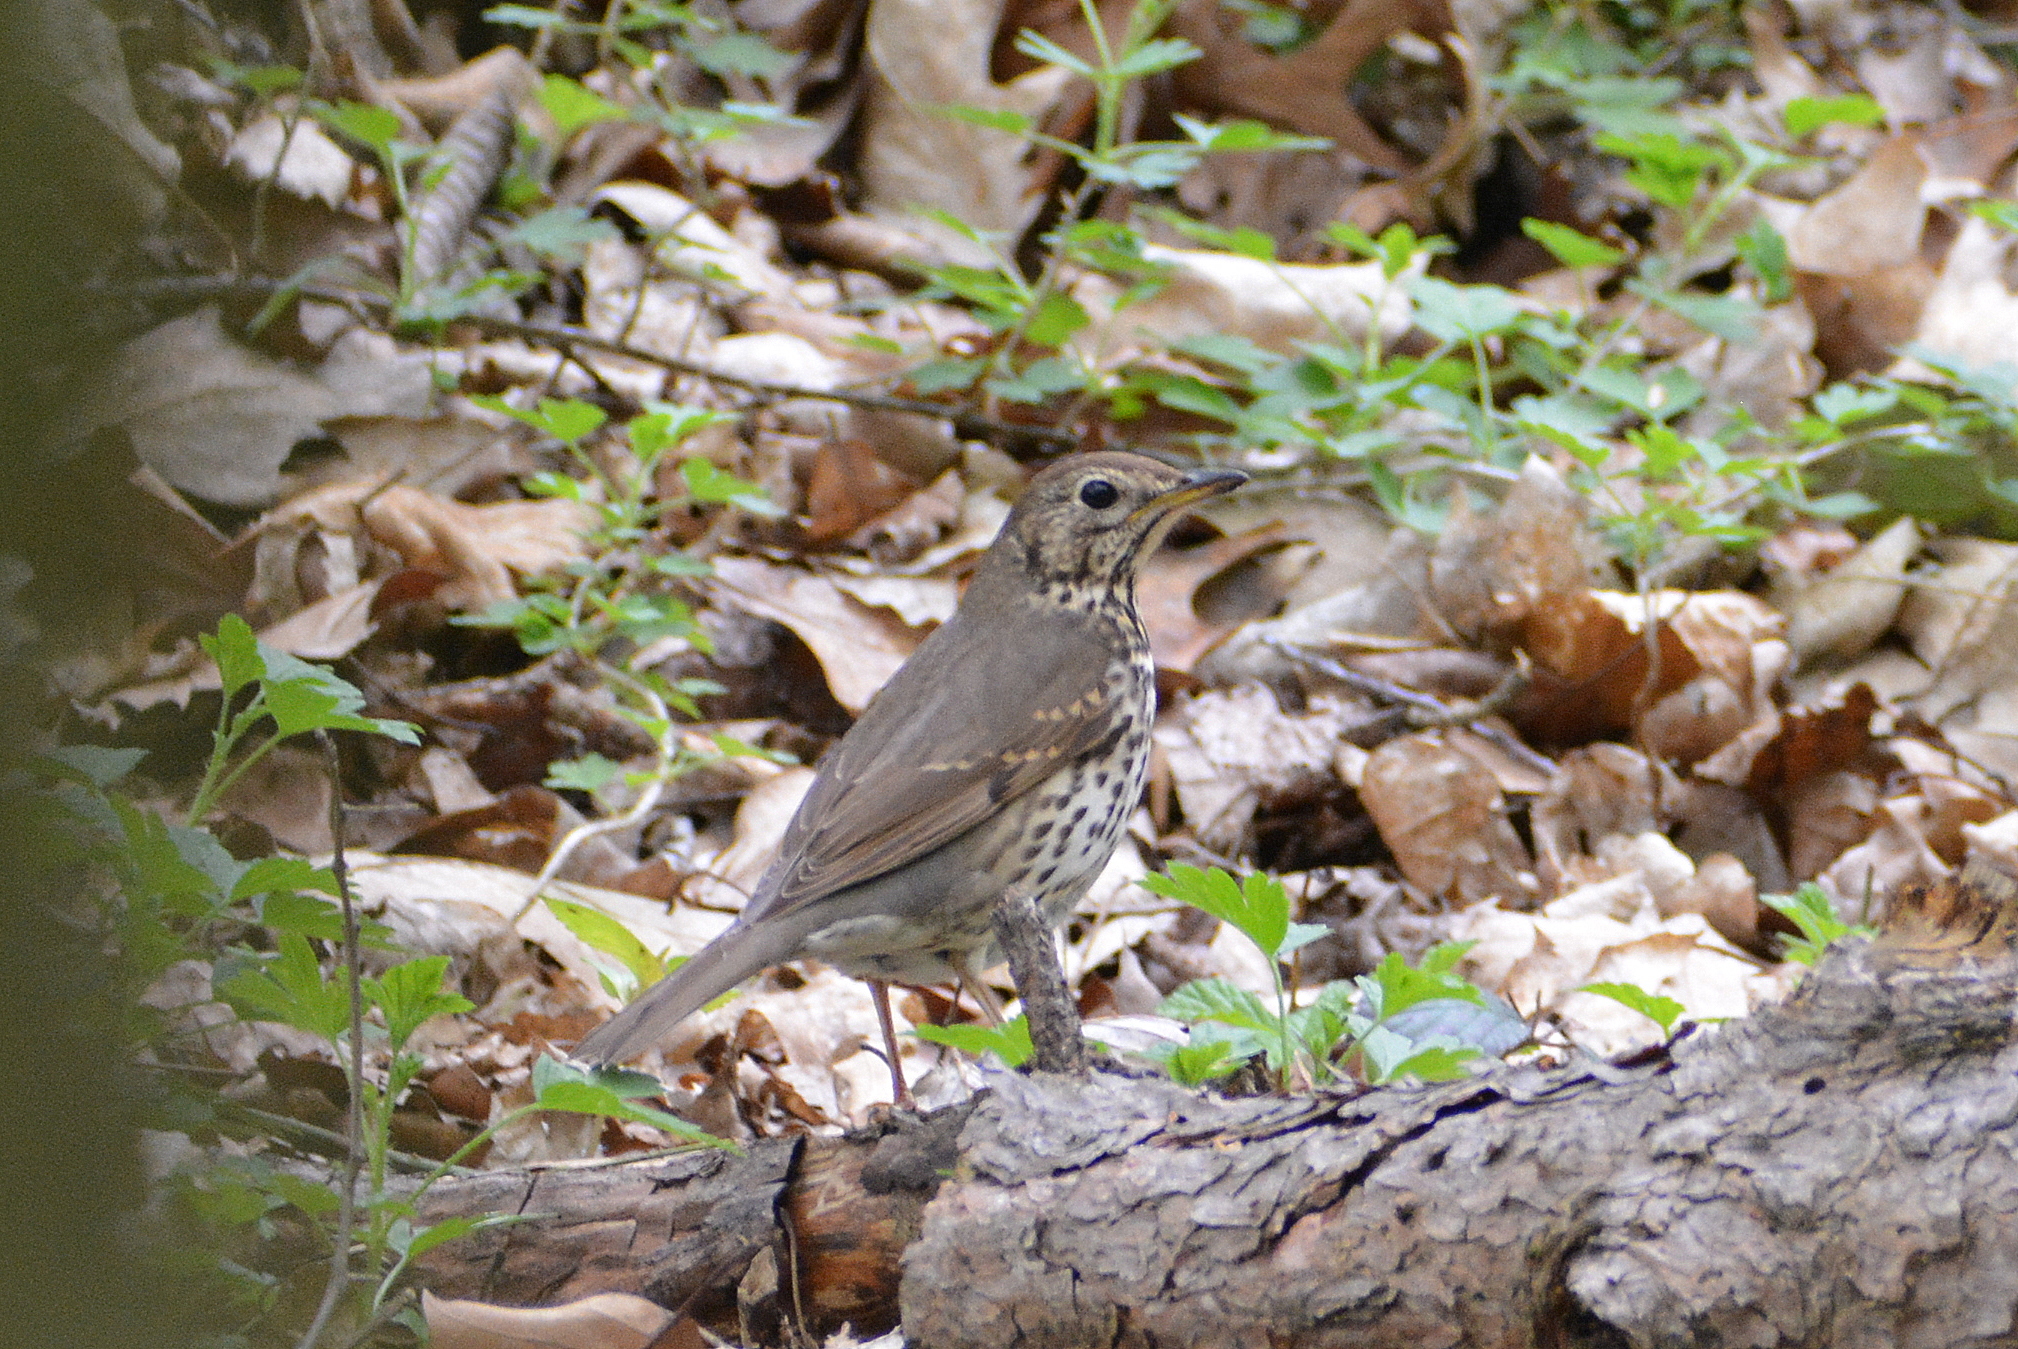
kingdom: Animalia
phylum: Chordata
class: Aves
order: Passeriformes
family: Turdidae
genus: Turdus
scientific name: Turdus philomelos
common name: Song thrush
